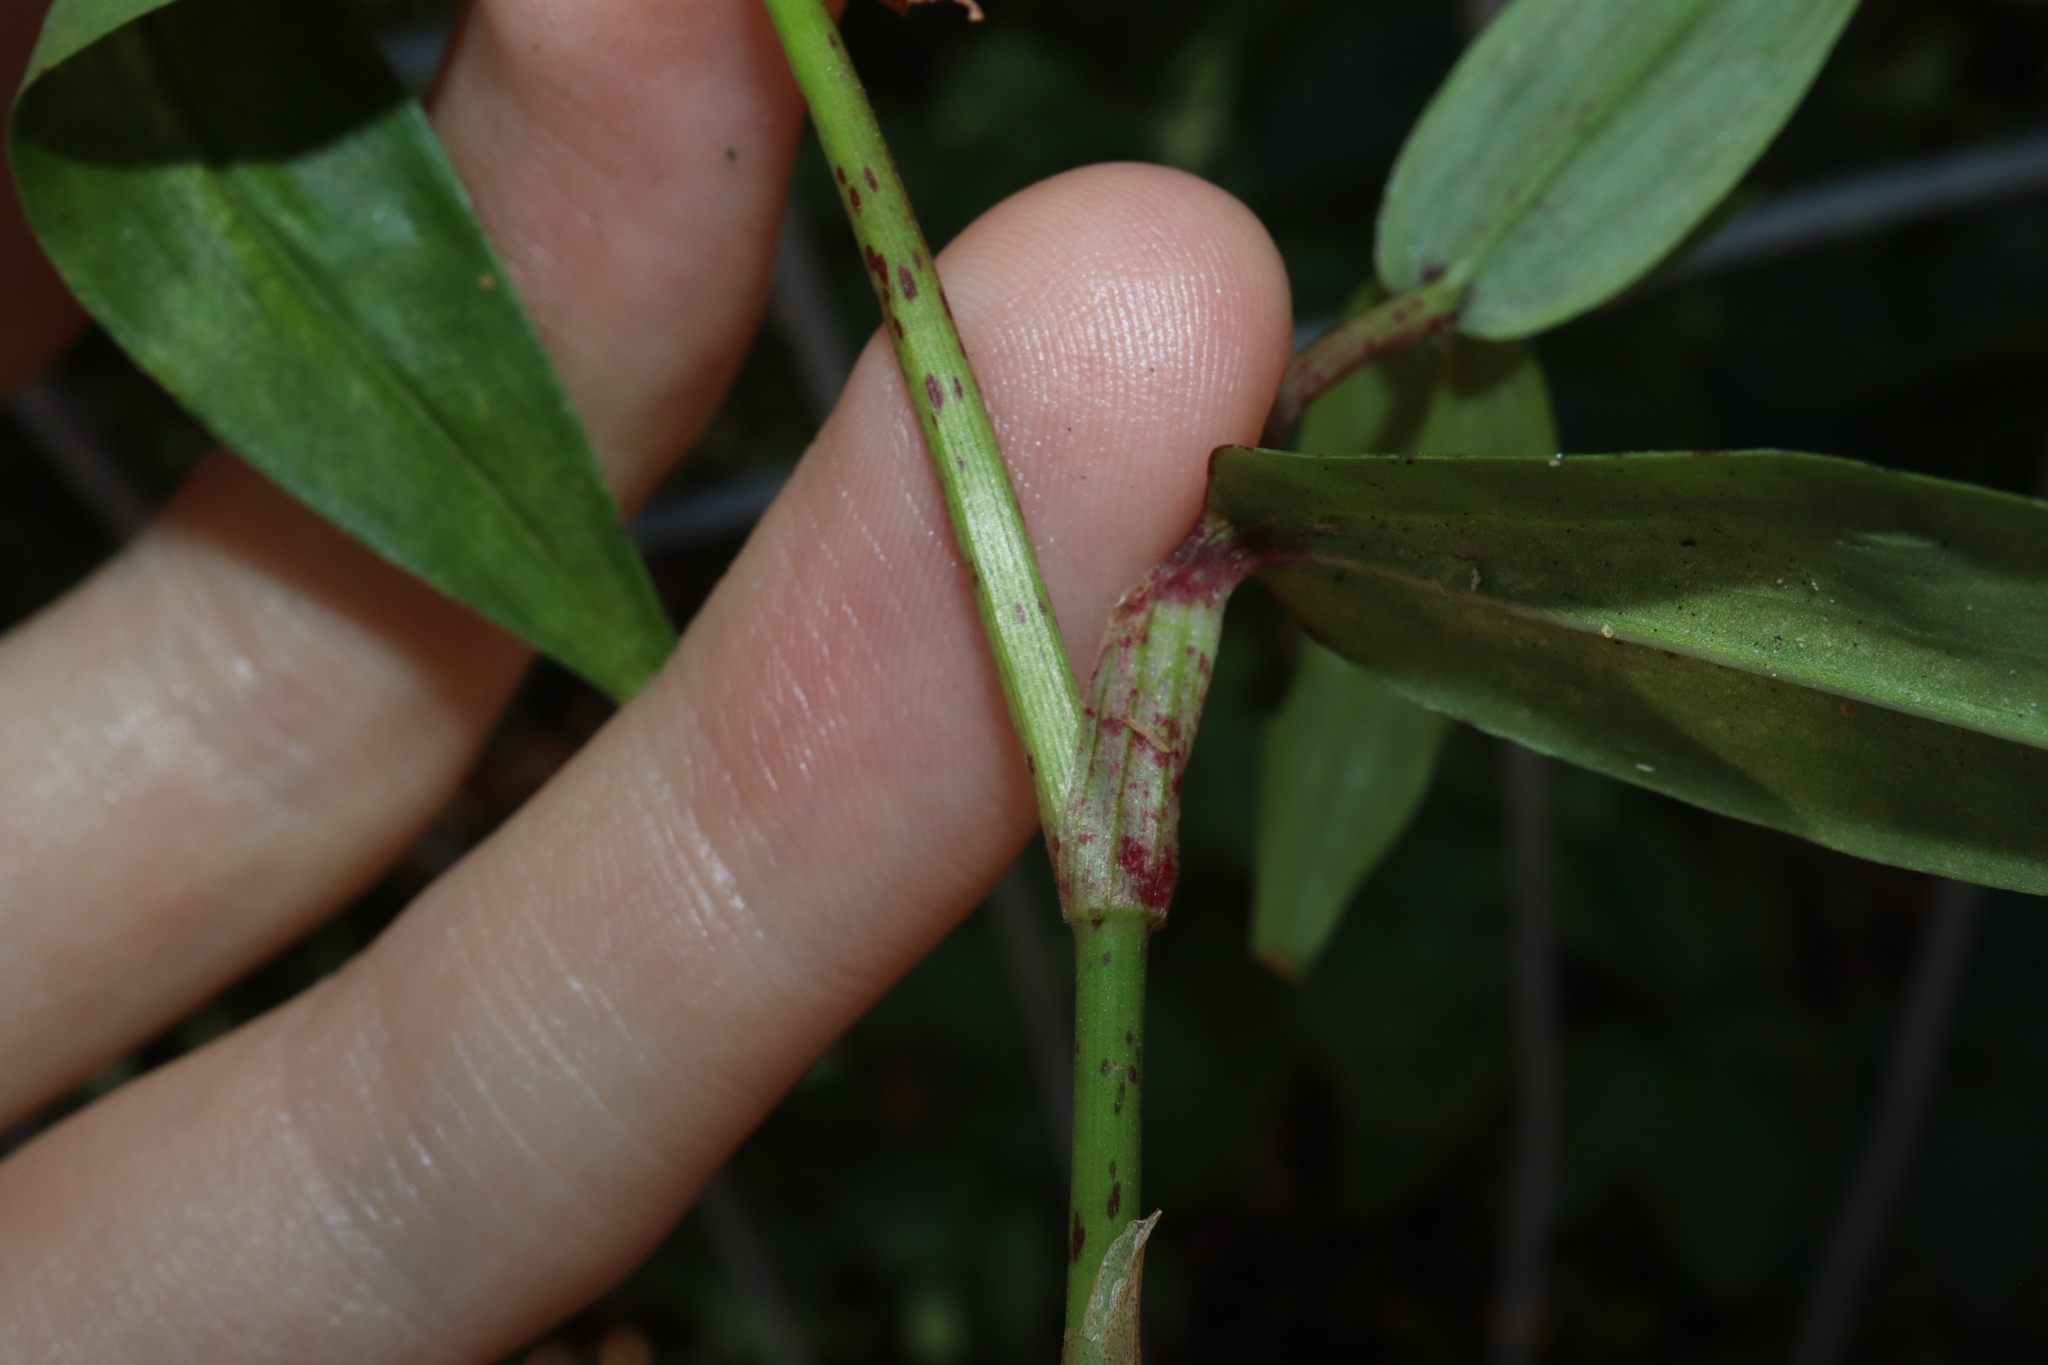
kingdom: Plantae
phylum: Tracheophyta
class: Liliopsida
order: Commelinales
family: Commelinaceae
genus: Commelina
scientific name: Commelina diffusa
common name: Climbing dayflower
